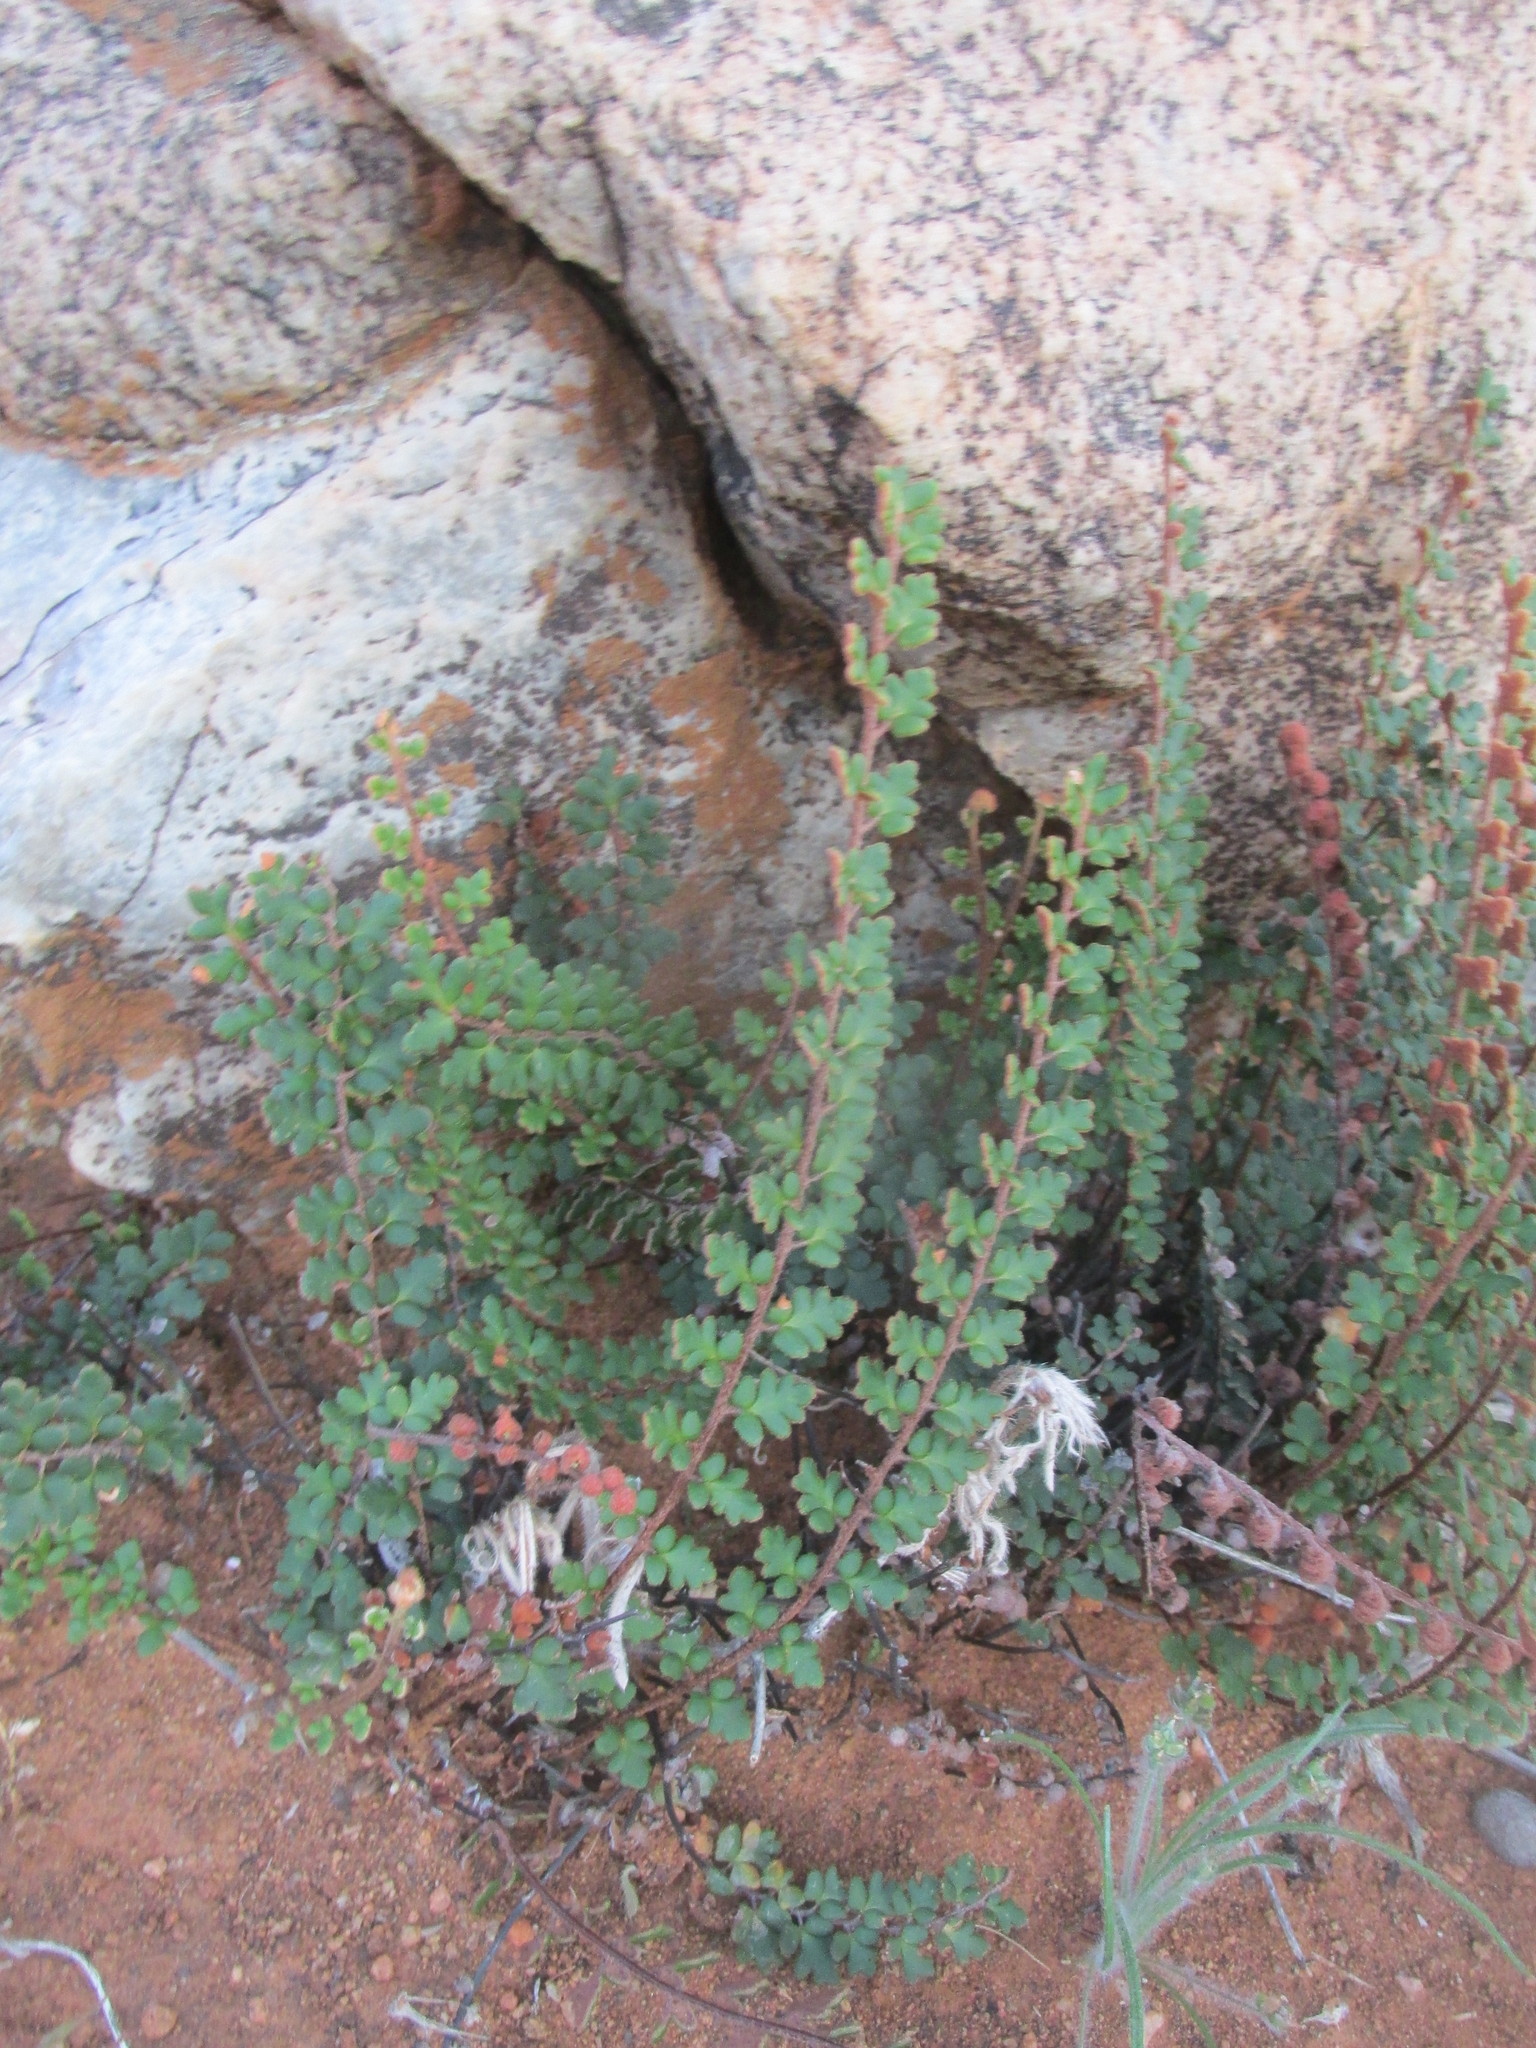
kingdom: Plantae
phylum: Tracheophyta
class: Polypodiopsida
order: Polypodiales
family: Pteridaceae
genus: Myriopteris
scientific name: Myriopteris rawsonii
